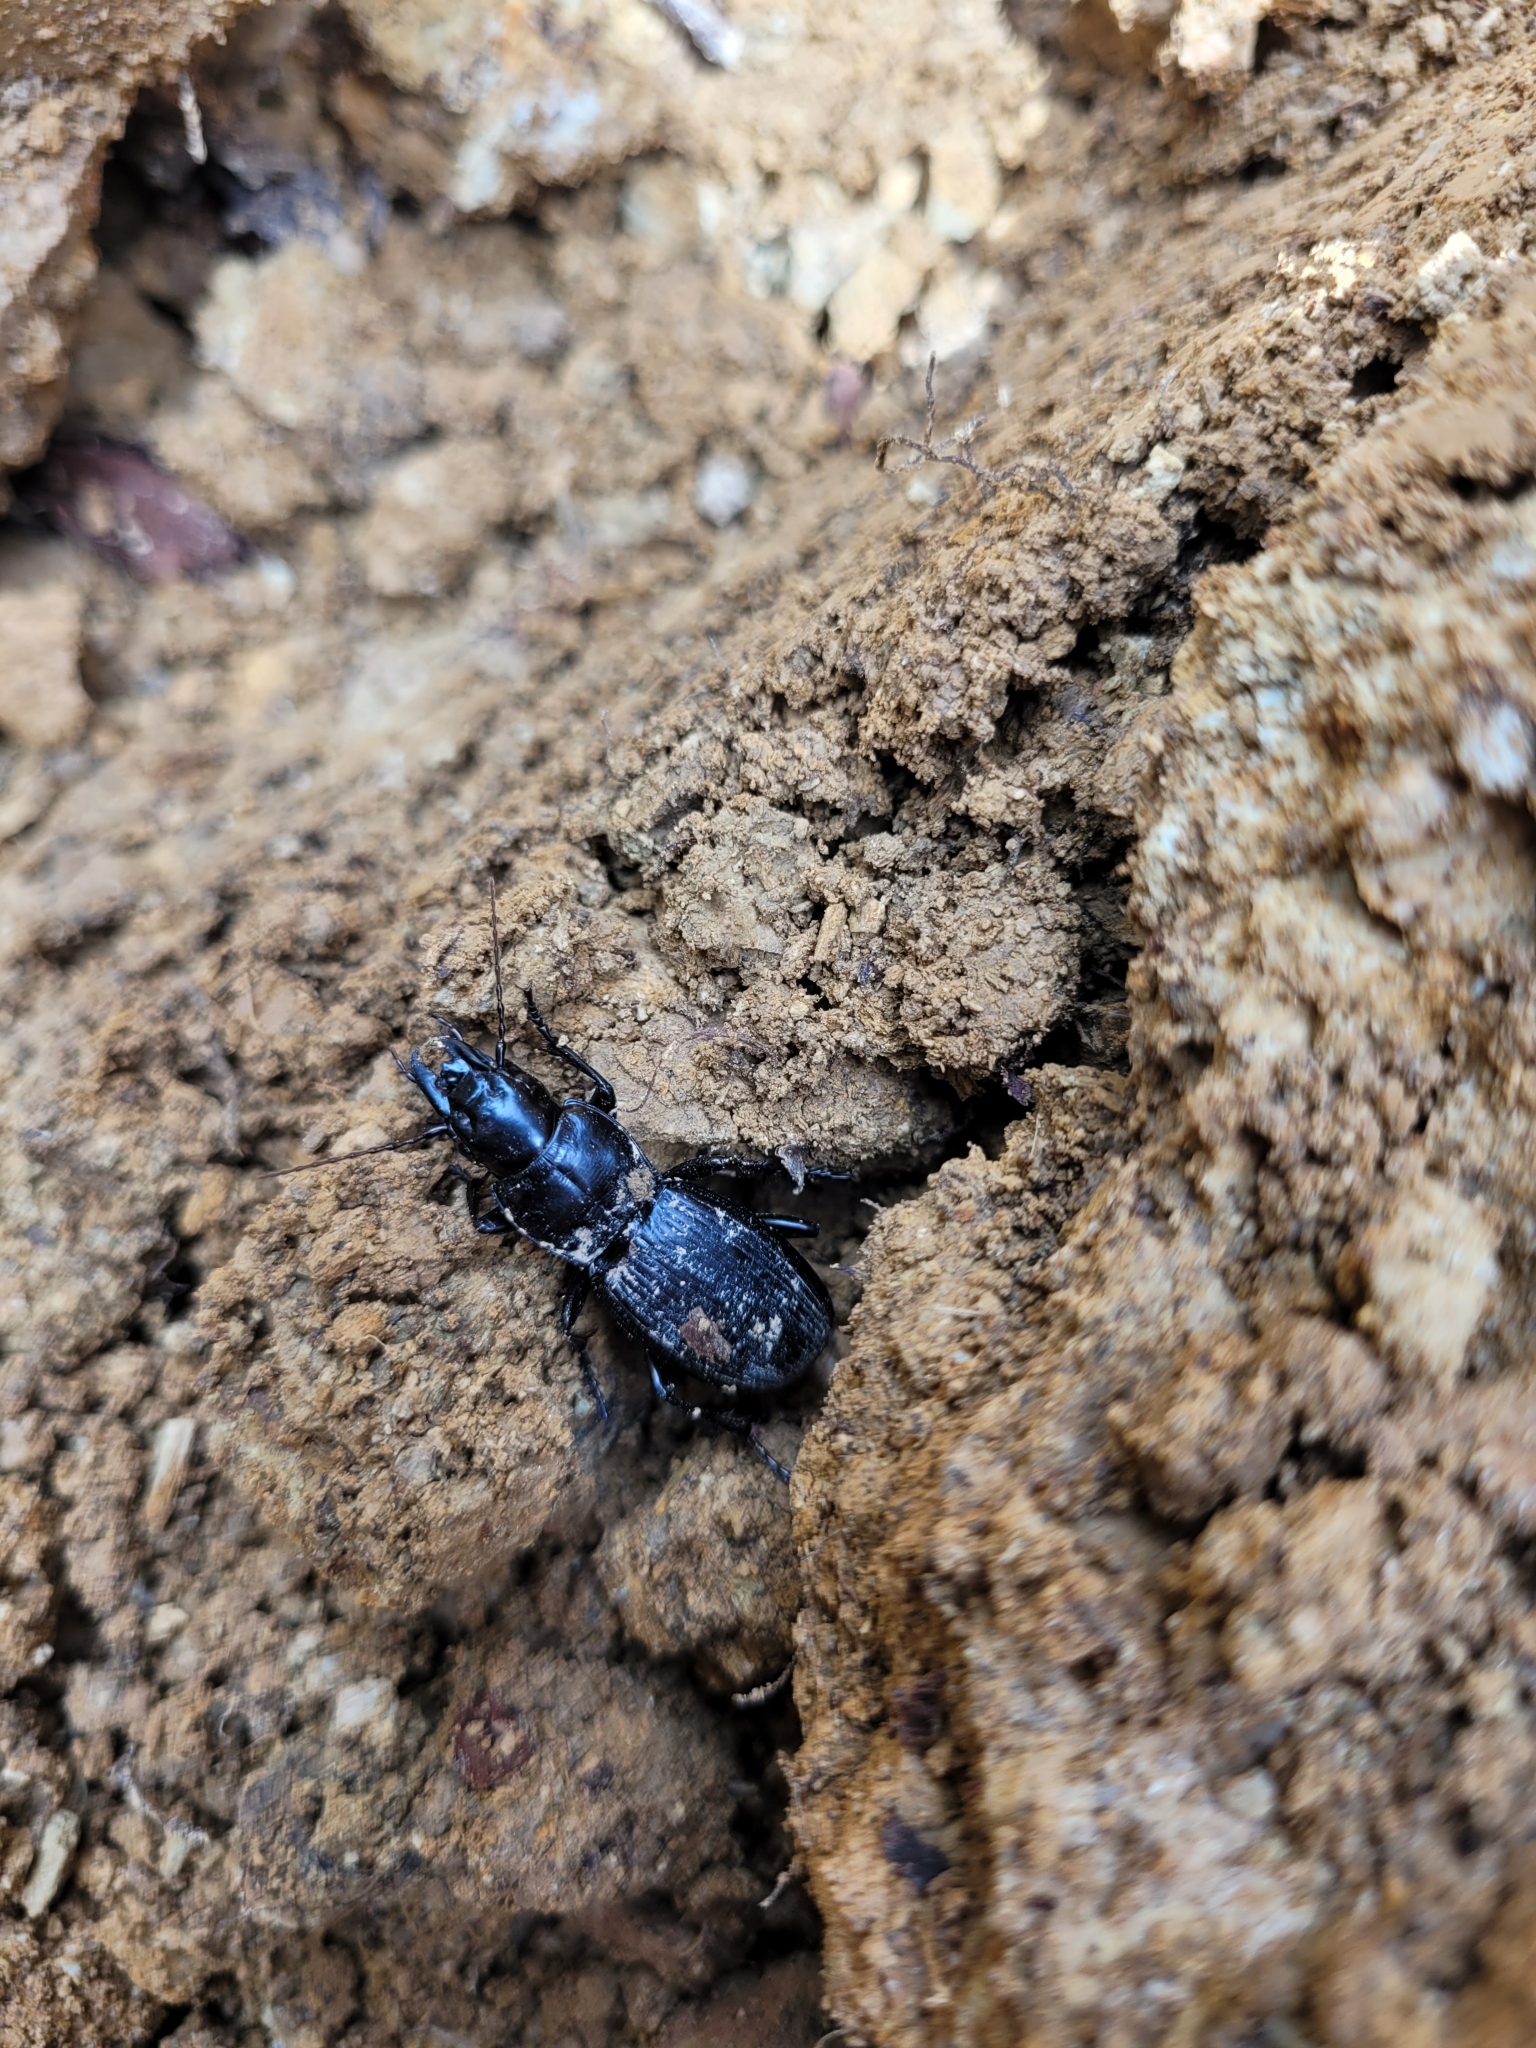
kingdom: Animalia
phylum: Arthropoda
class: Insecta
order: Coleoptera
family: Carabidae
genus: Plocamostethus
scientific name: Plocamostethus planiusculus
